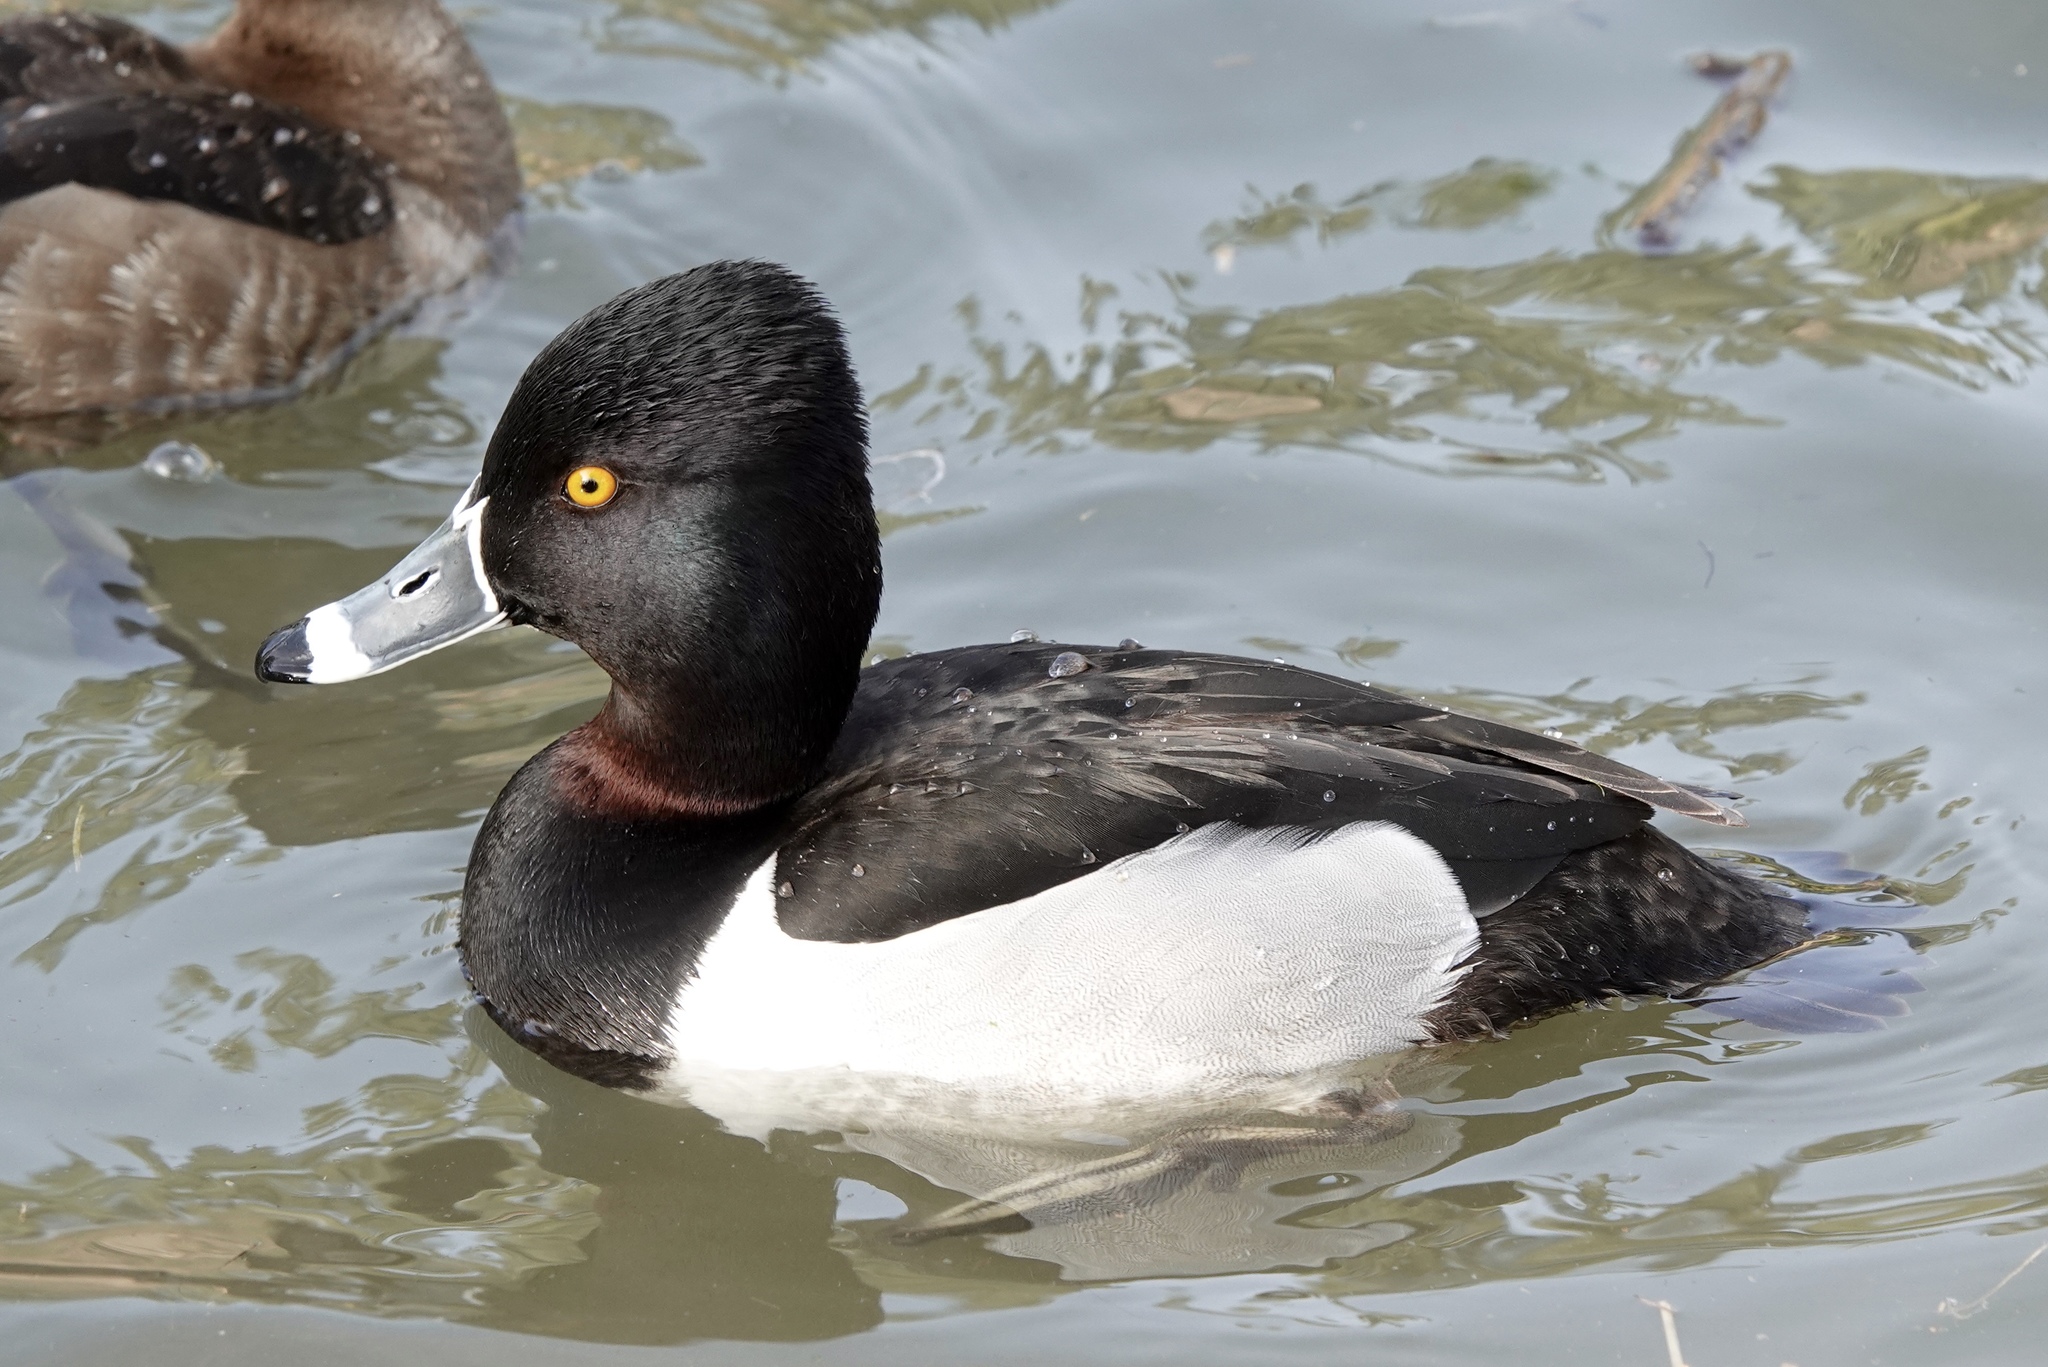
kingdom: Animalia
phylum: Chordata
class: Aves
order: Anseriformes
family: Anatidae
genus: Aythya
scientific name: Aythya collaris
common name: Ring-necked duck
